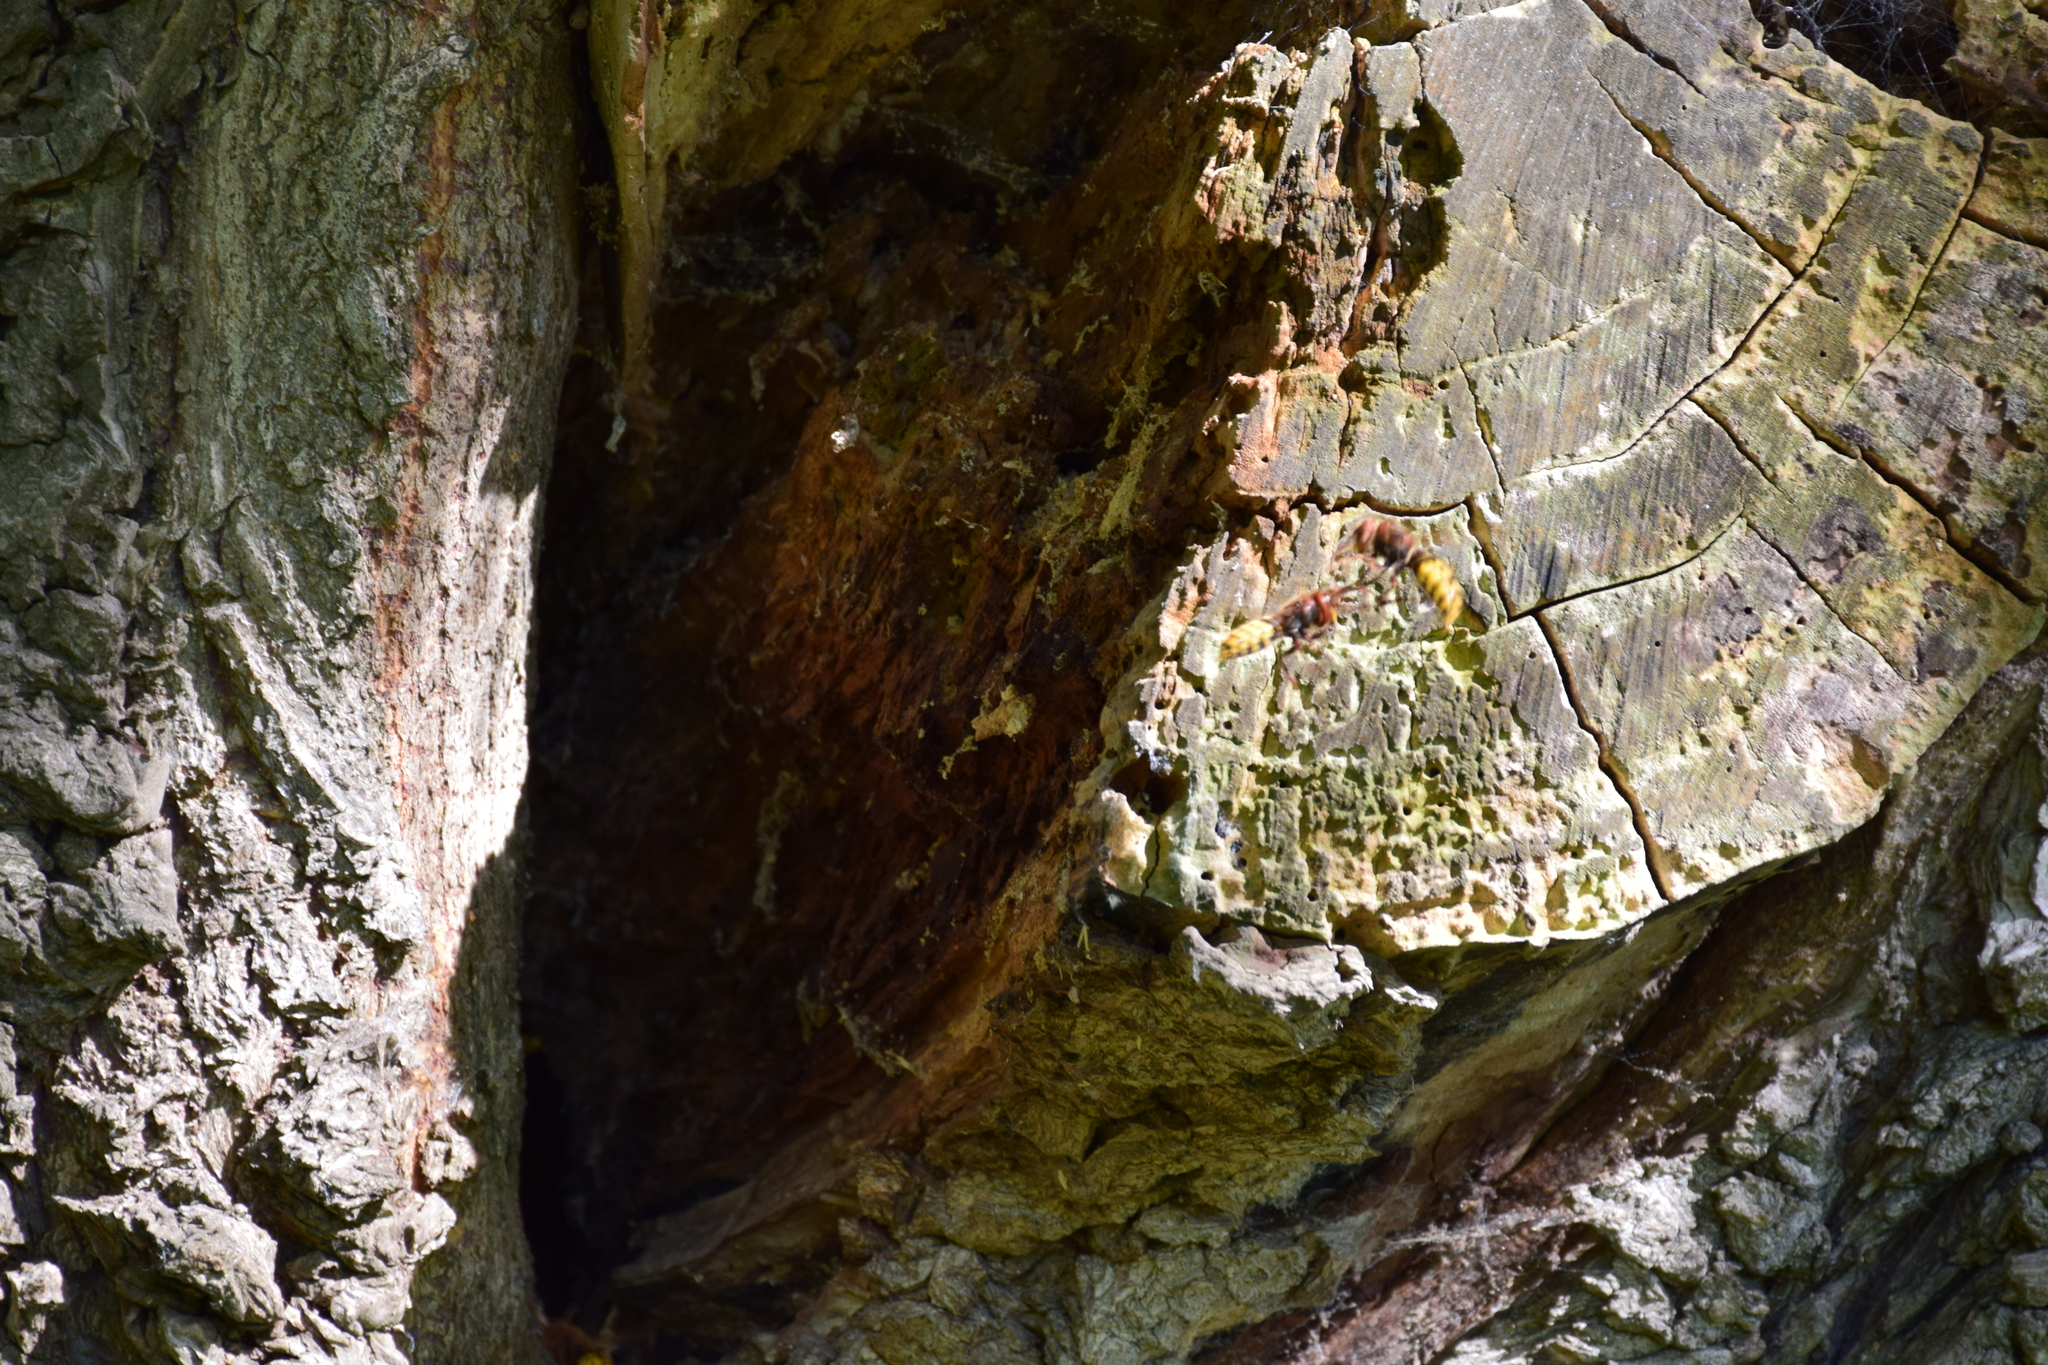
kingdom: Animalia
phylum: Arthropoda
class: Insecta
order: Hymenoptera
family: Vespidae
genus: Vespa
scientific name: Vespa crabro
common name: Hornet
